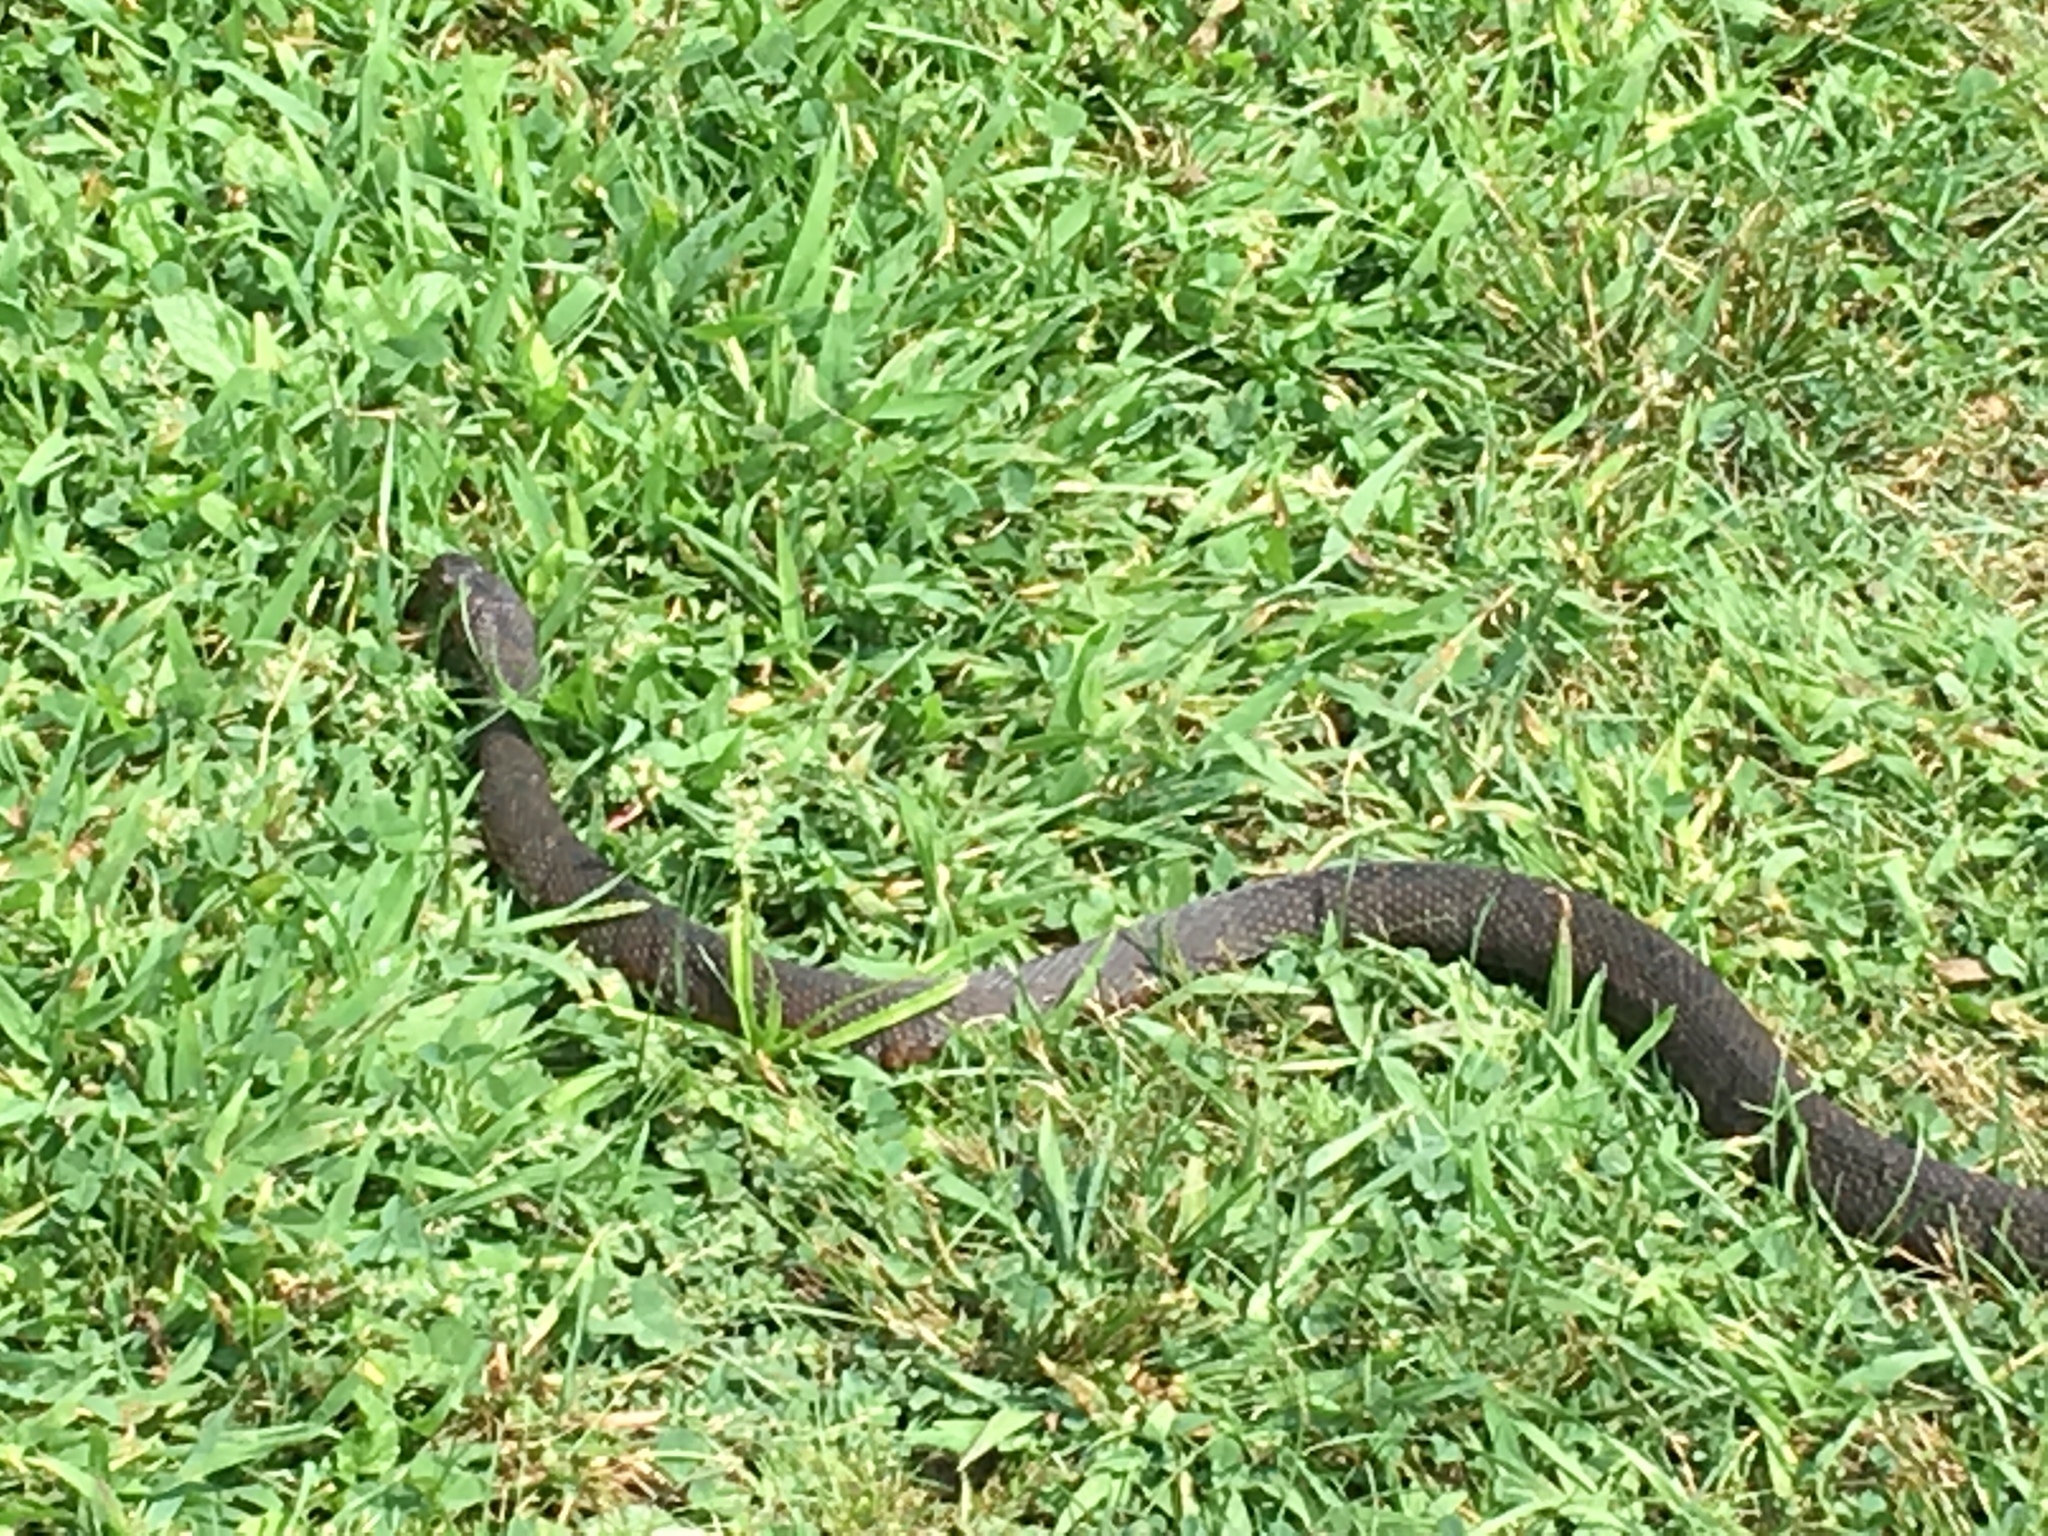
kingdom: Animalia
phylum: Chordata
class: Squamata
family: Colubridae
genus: Nerodia
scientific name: Nerodia sipedon
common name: Northern water snake
